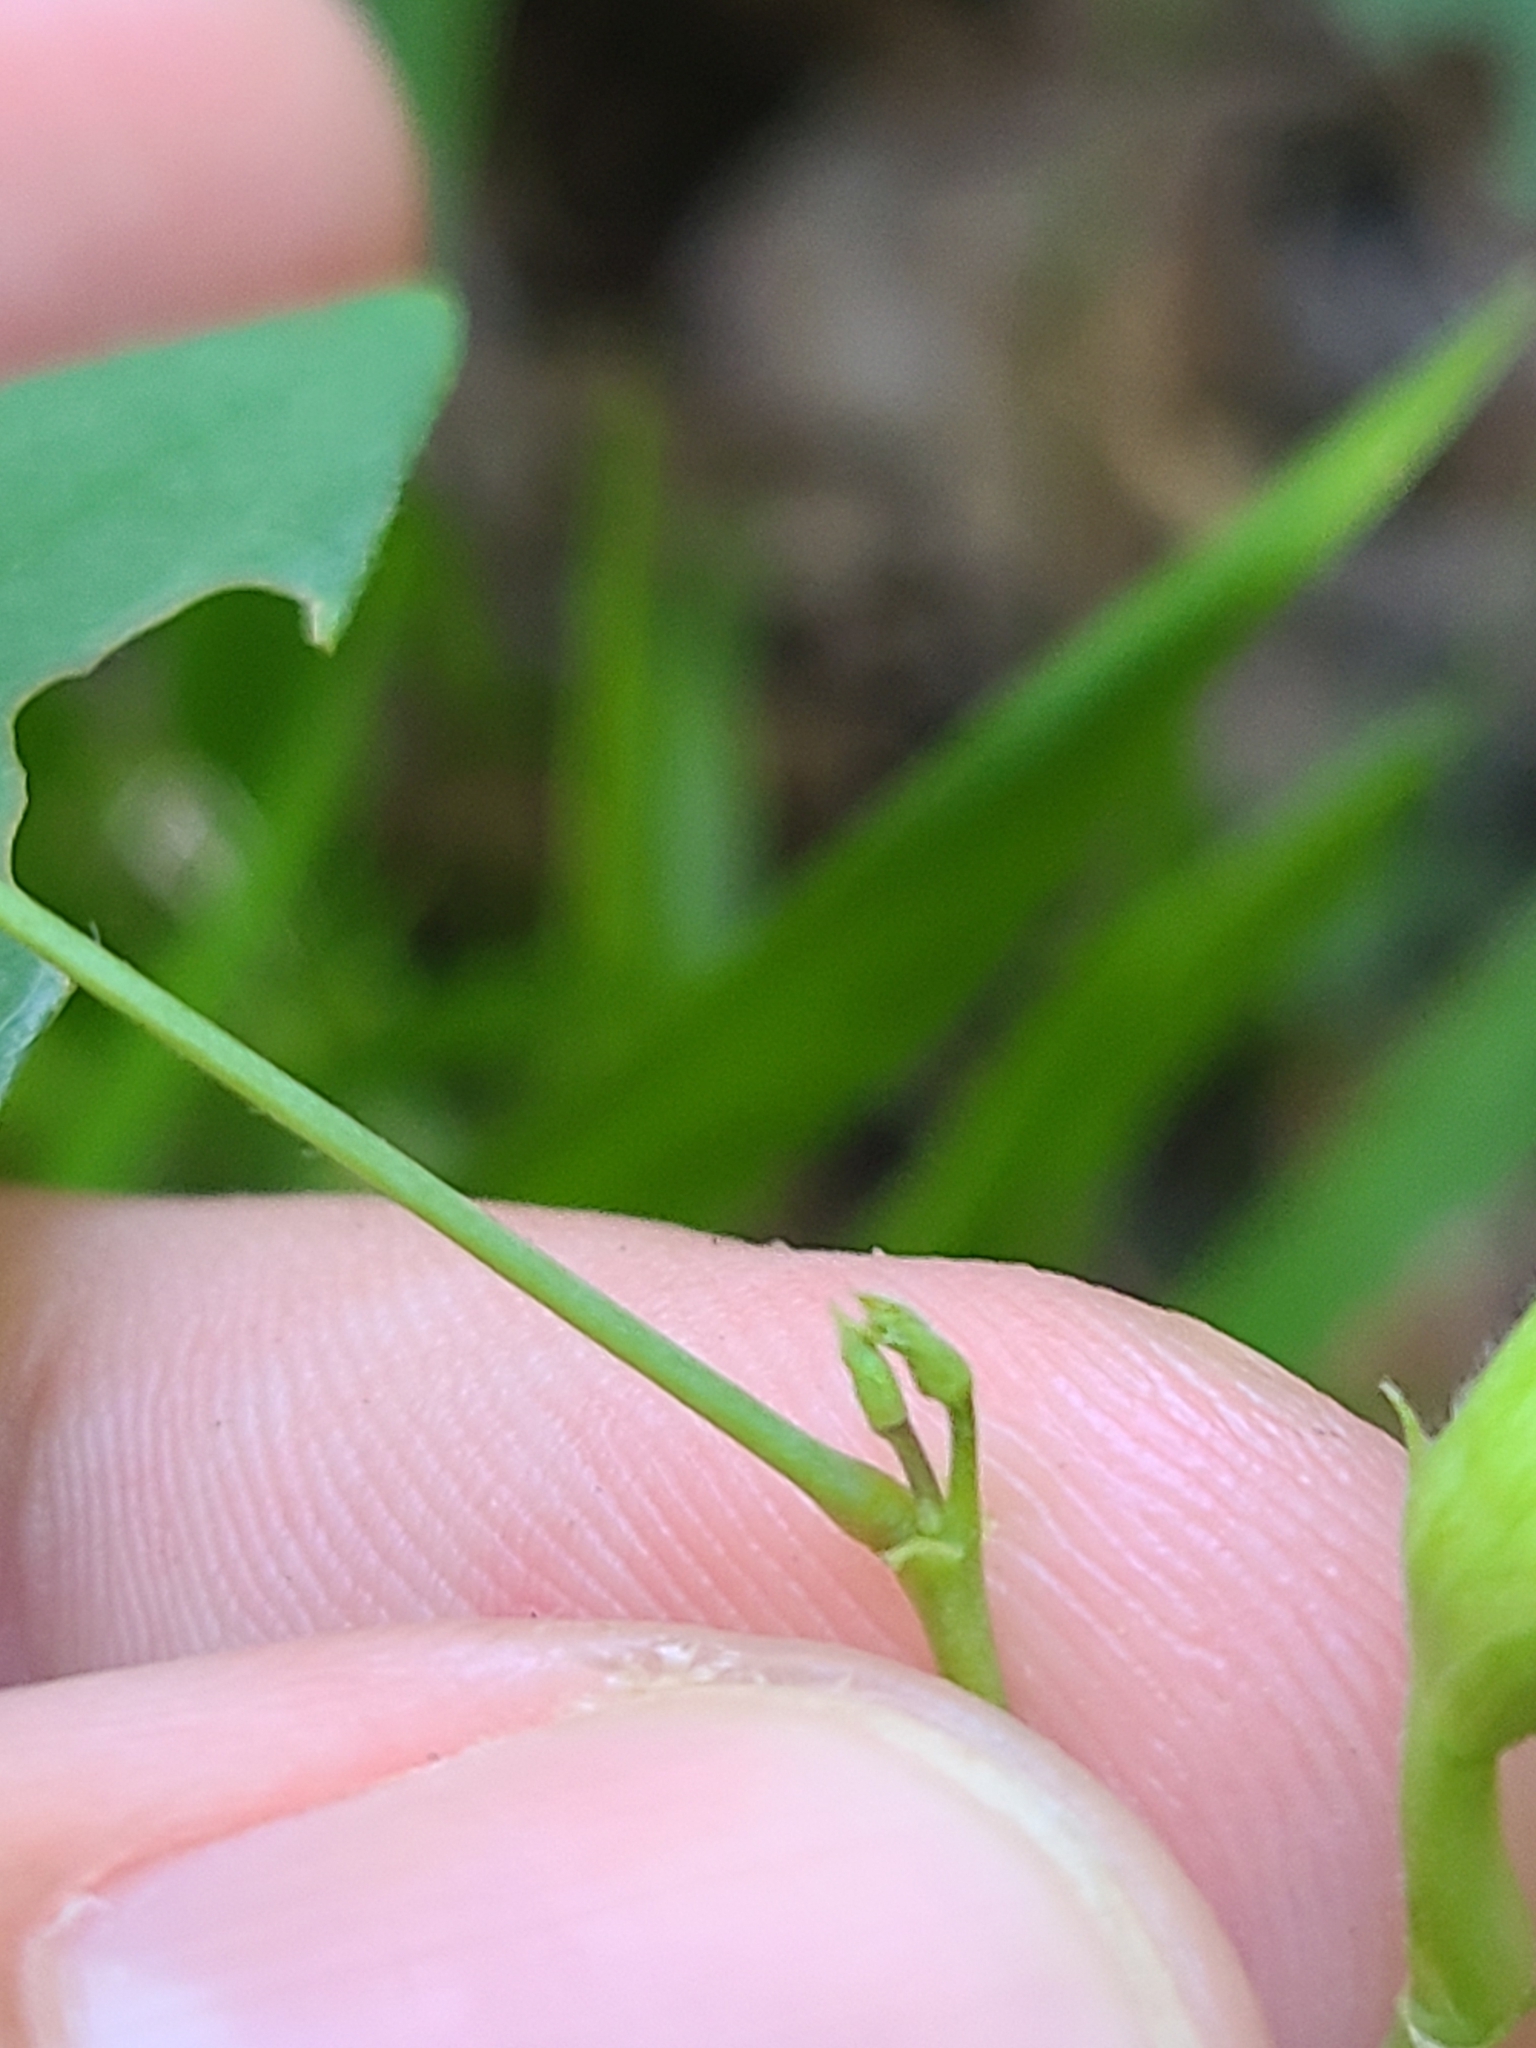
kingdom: Plantae
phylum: Tracheophyta
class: Magnoliopsida
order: Fabales
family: Fabaceae
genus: Clitoria
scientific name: Clitoria mariana
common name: Butterfly-pea
